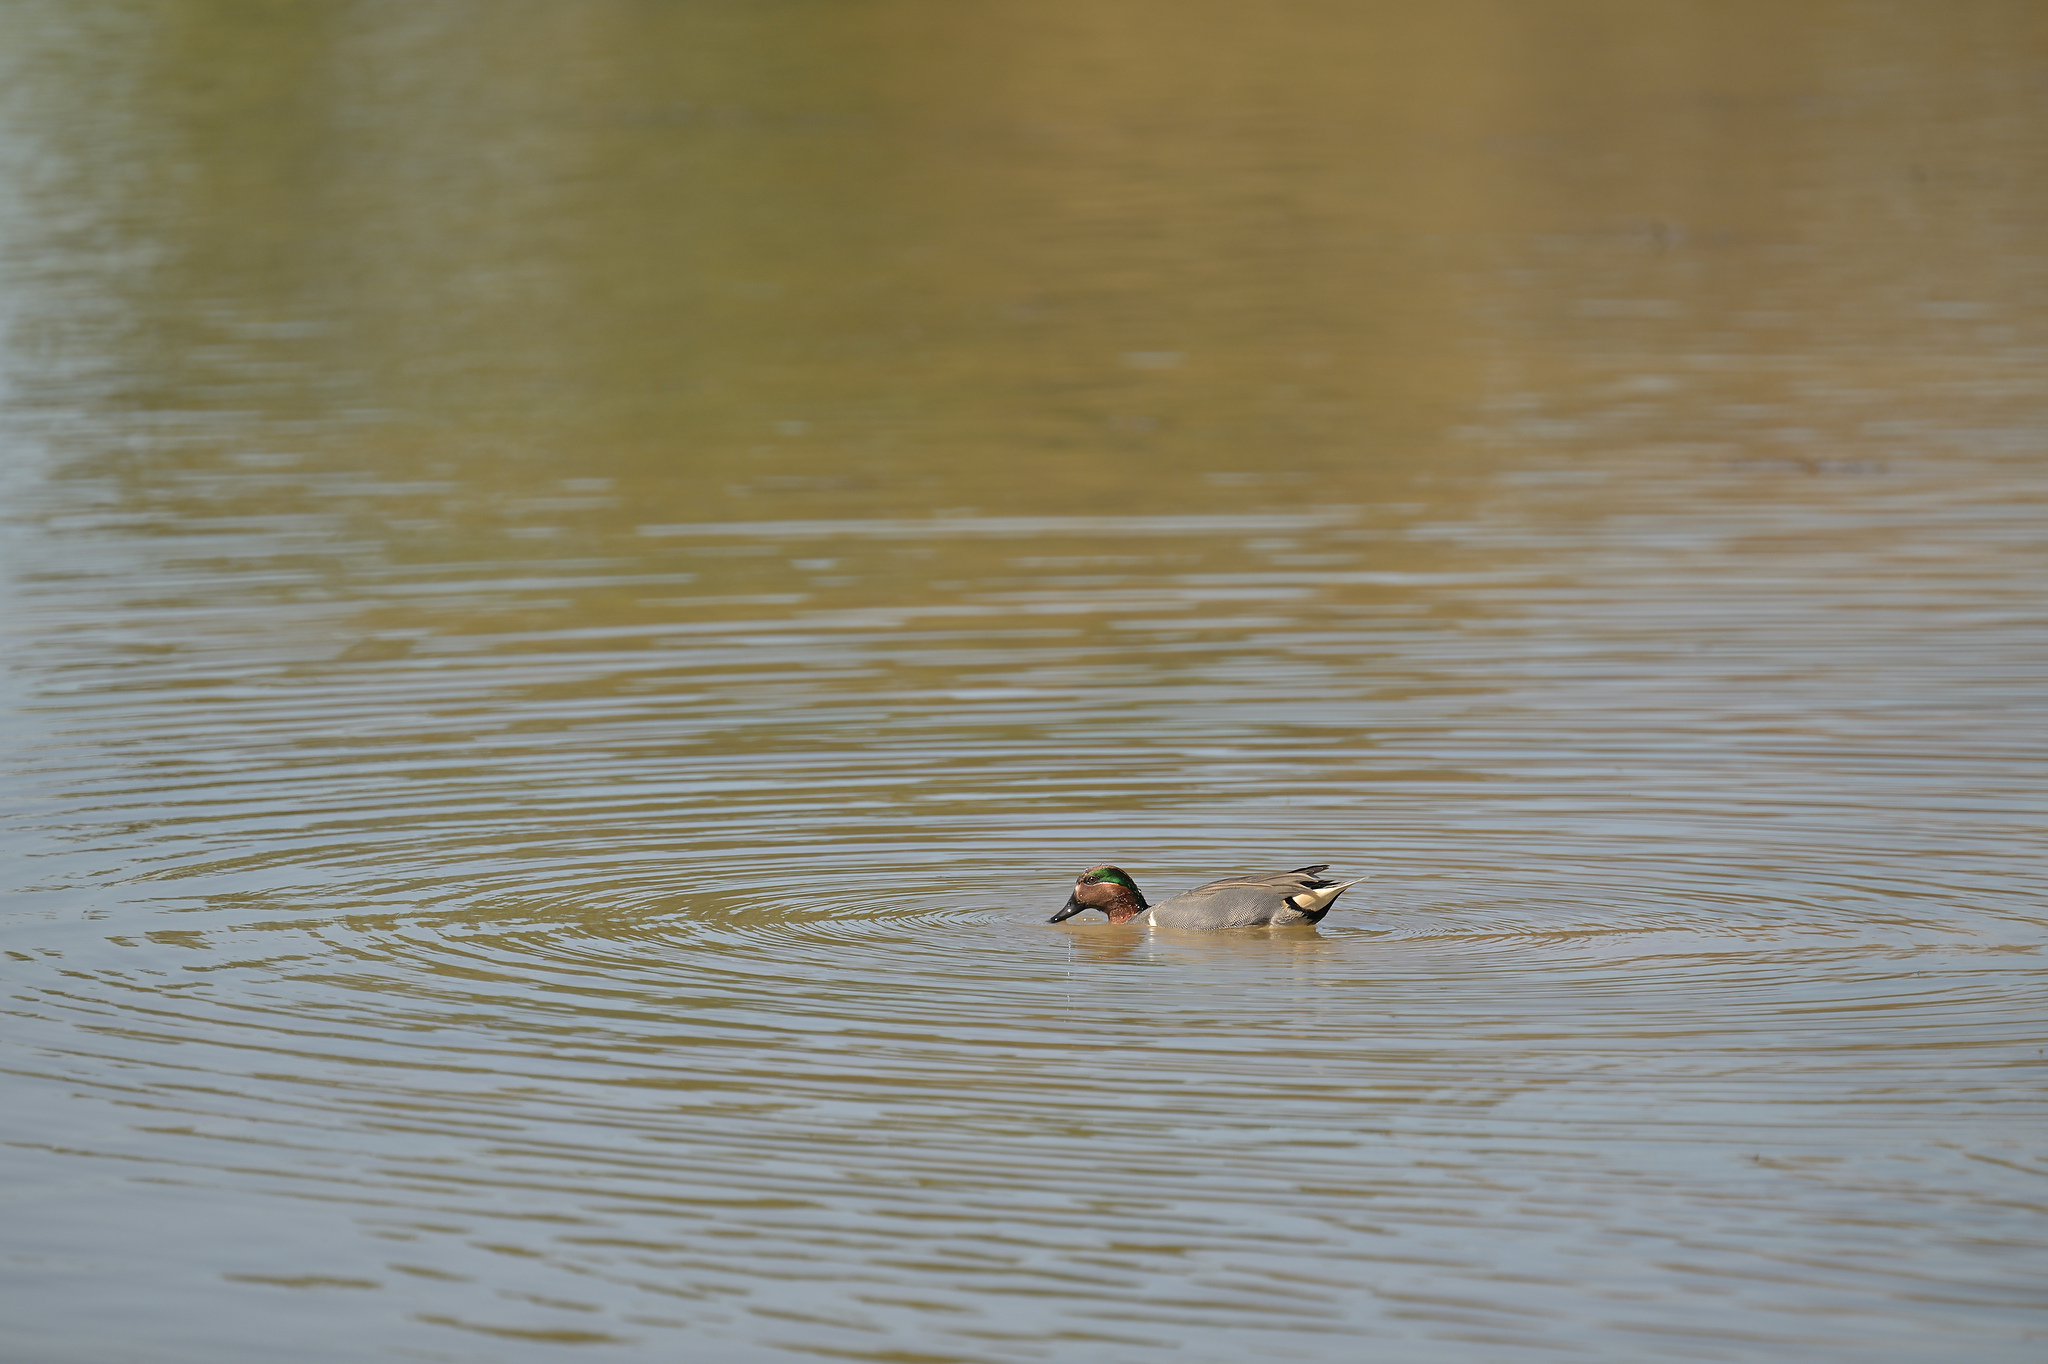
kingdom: Animalia
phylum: Chordata
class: Aves
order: Anseriformes
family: Anatidae
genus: Anas
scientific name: Anas crecca
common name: Eurasian teal
